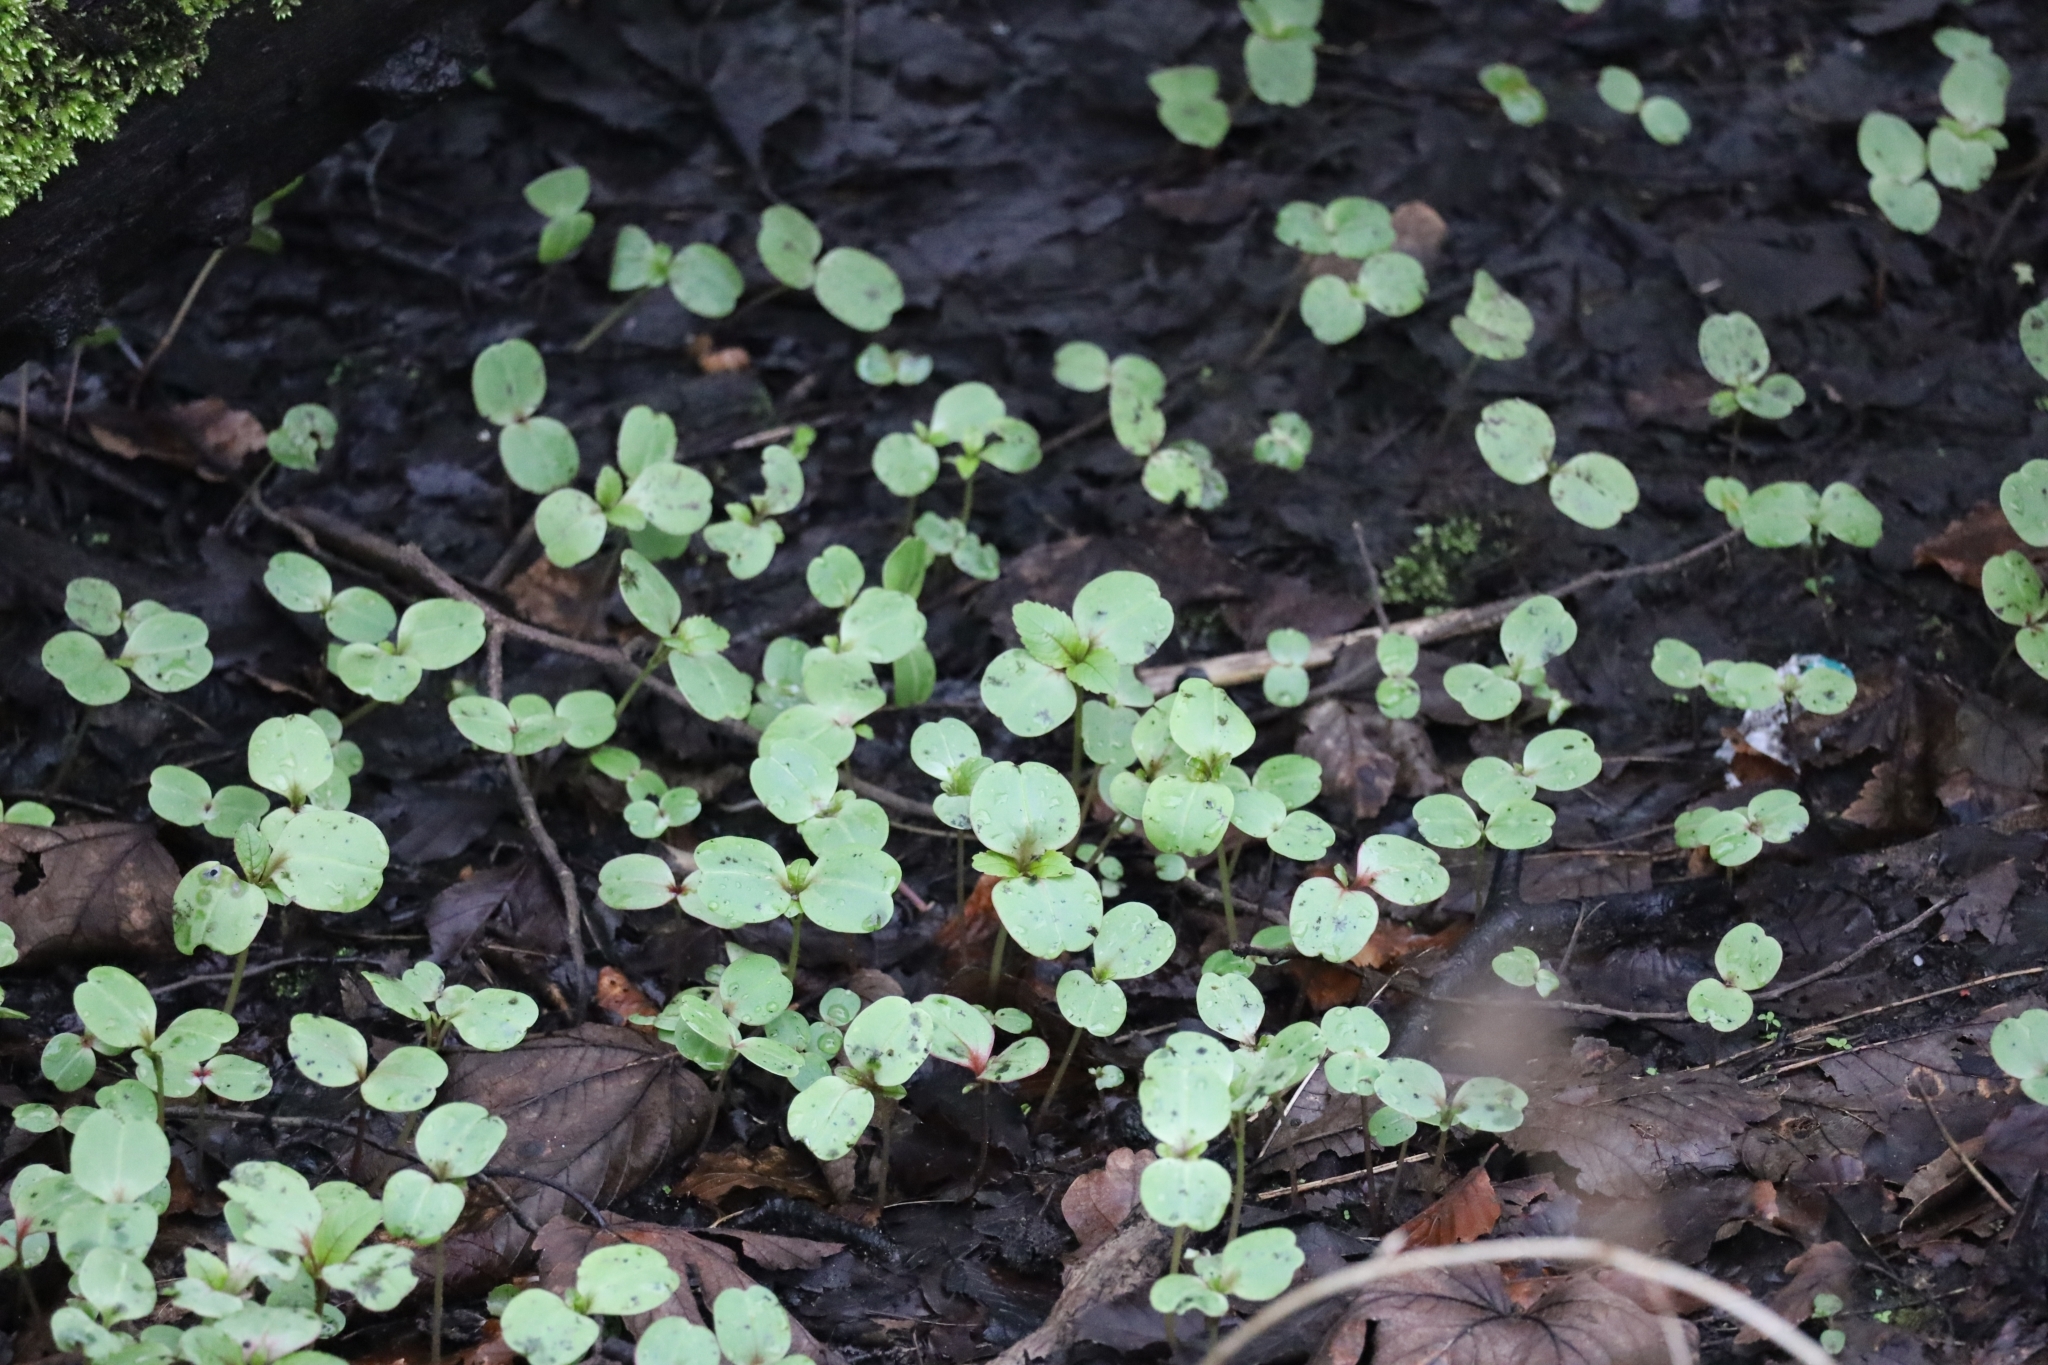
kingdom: Plantae
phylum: Tracheophyta
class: Magnoliopsida
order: Ericales
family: Balsaminaceae
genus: Impatiens
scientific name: Impatiens glandulifera
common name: Himalayan balsam
